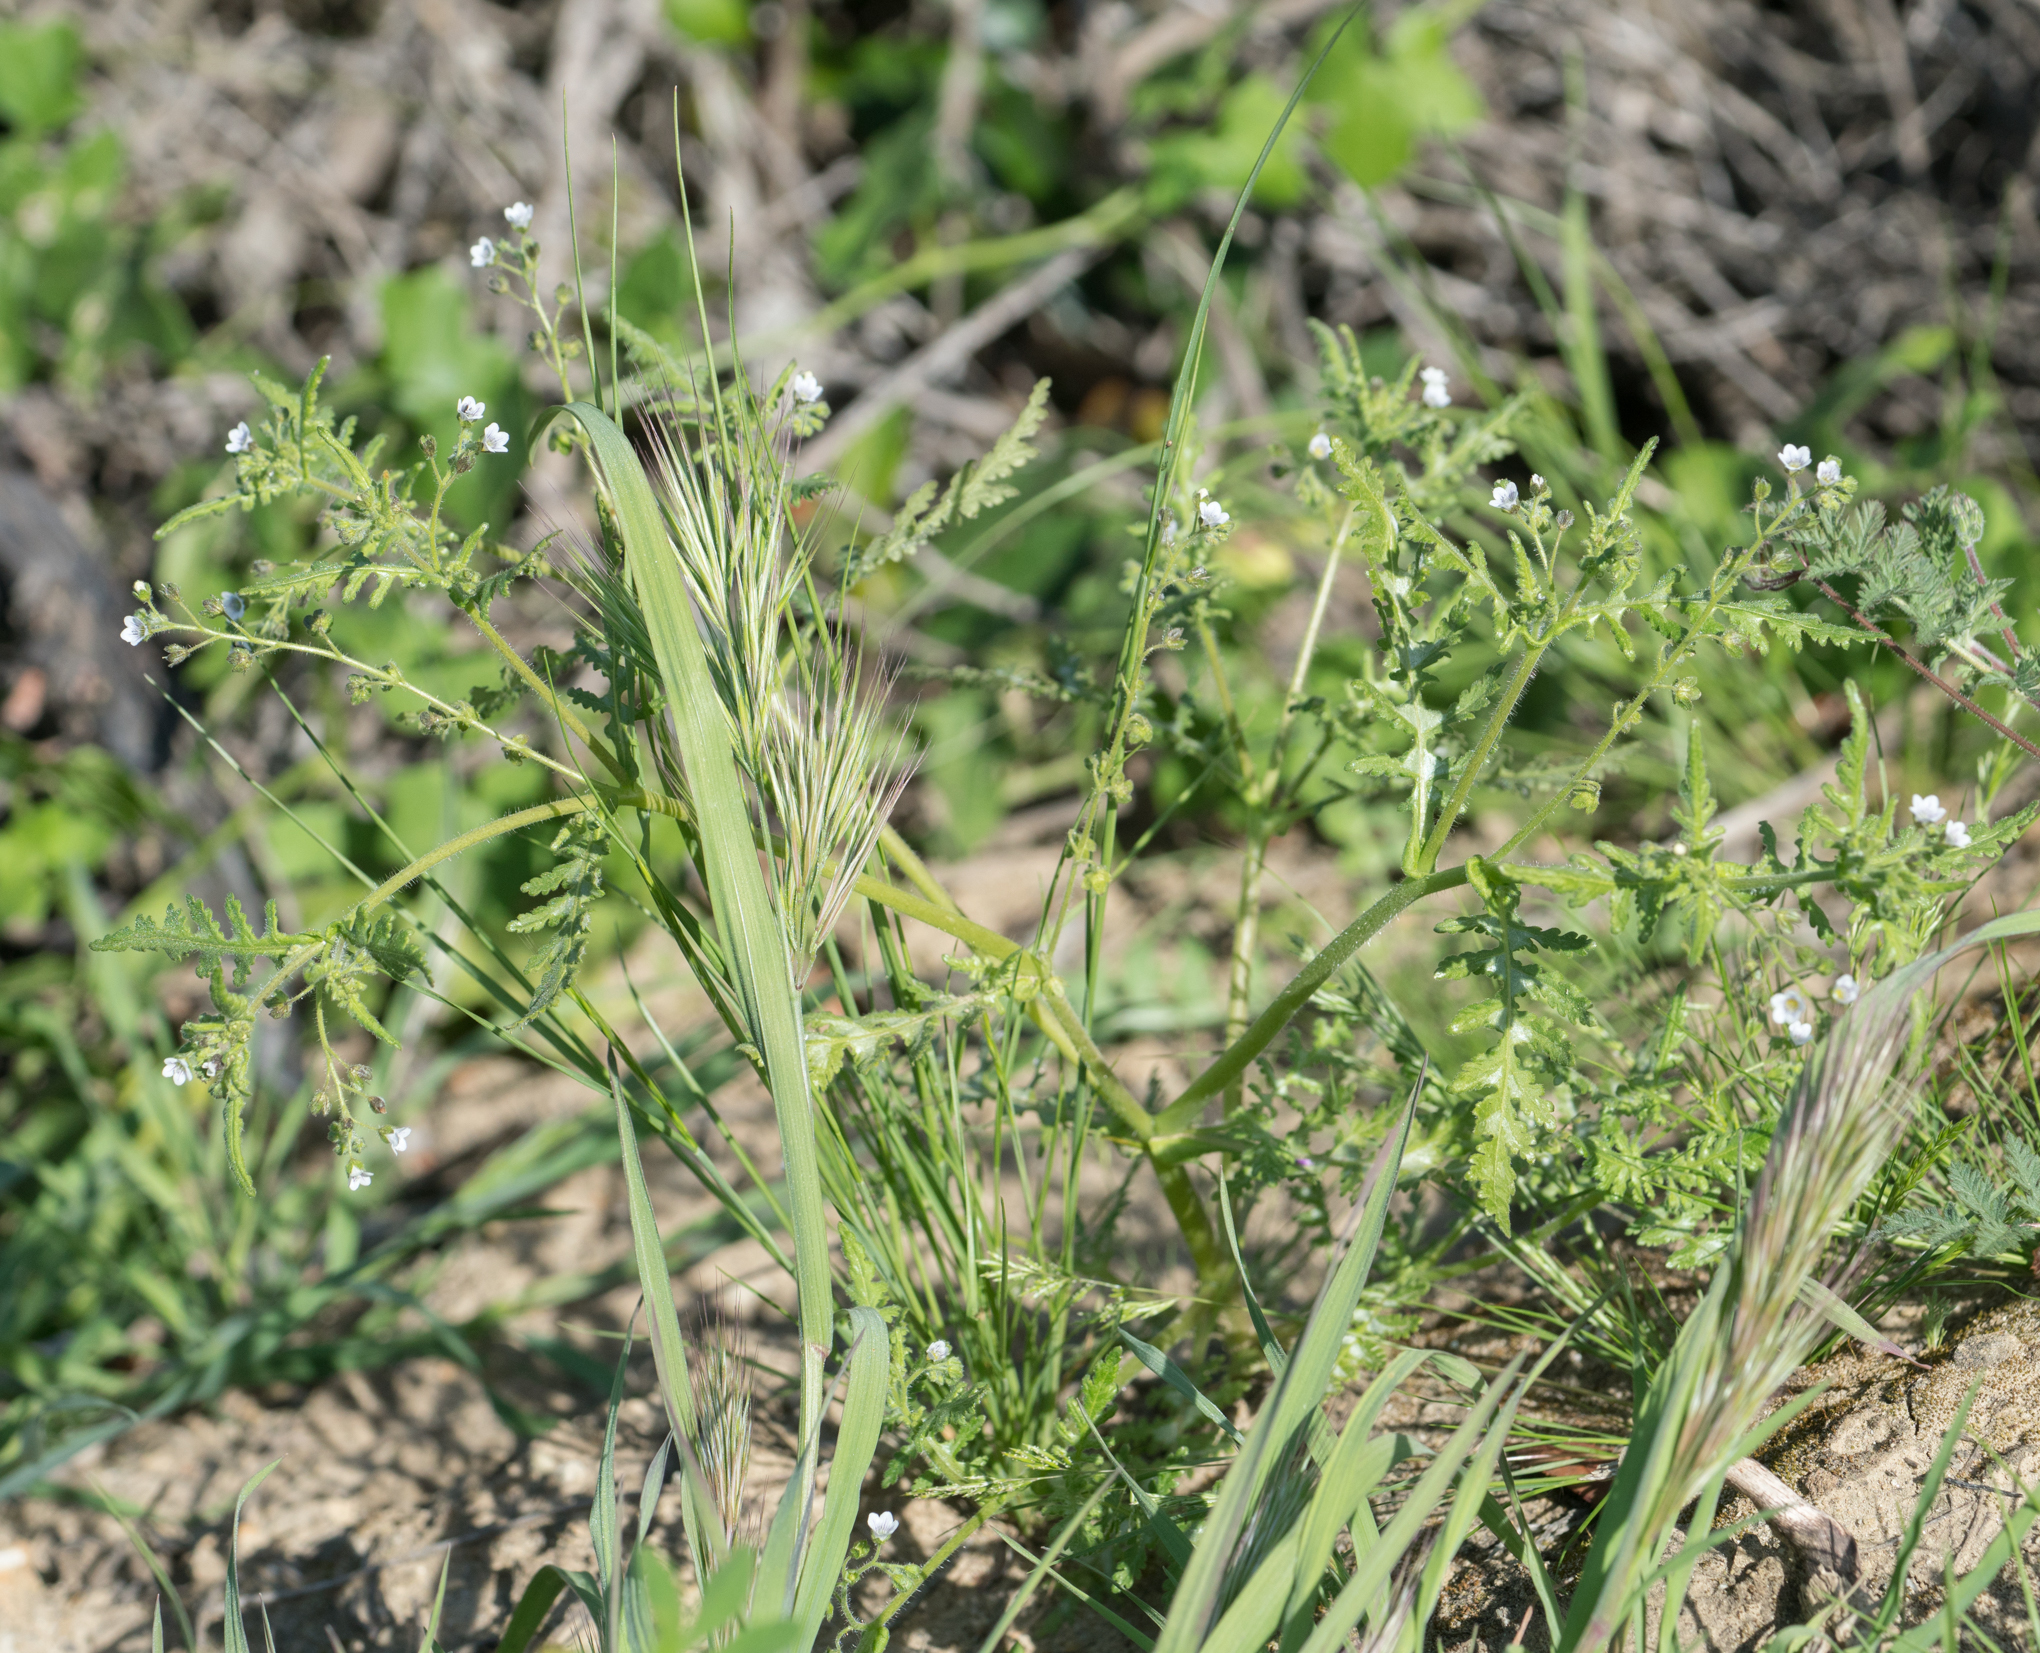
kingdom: Plantae
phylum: Tracheophyta
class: Magnoliopsida
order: Boraginales
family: Hydrophyllaceae
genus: Eucrypta
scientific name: Eucrypta chrysanthemifolia
